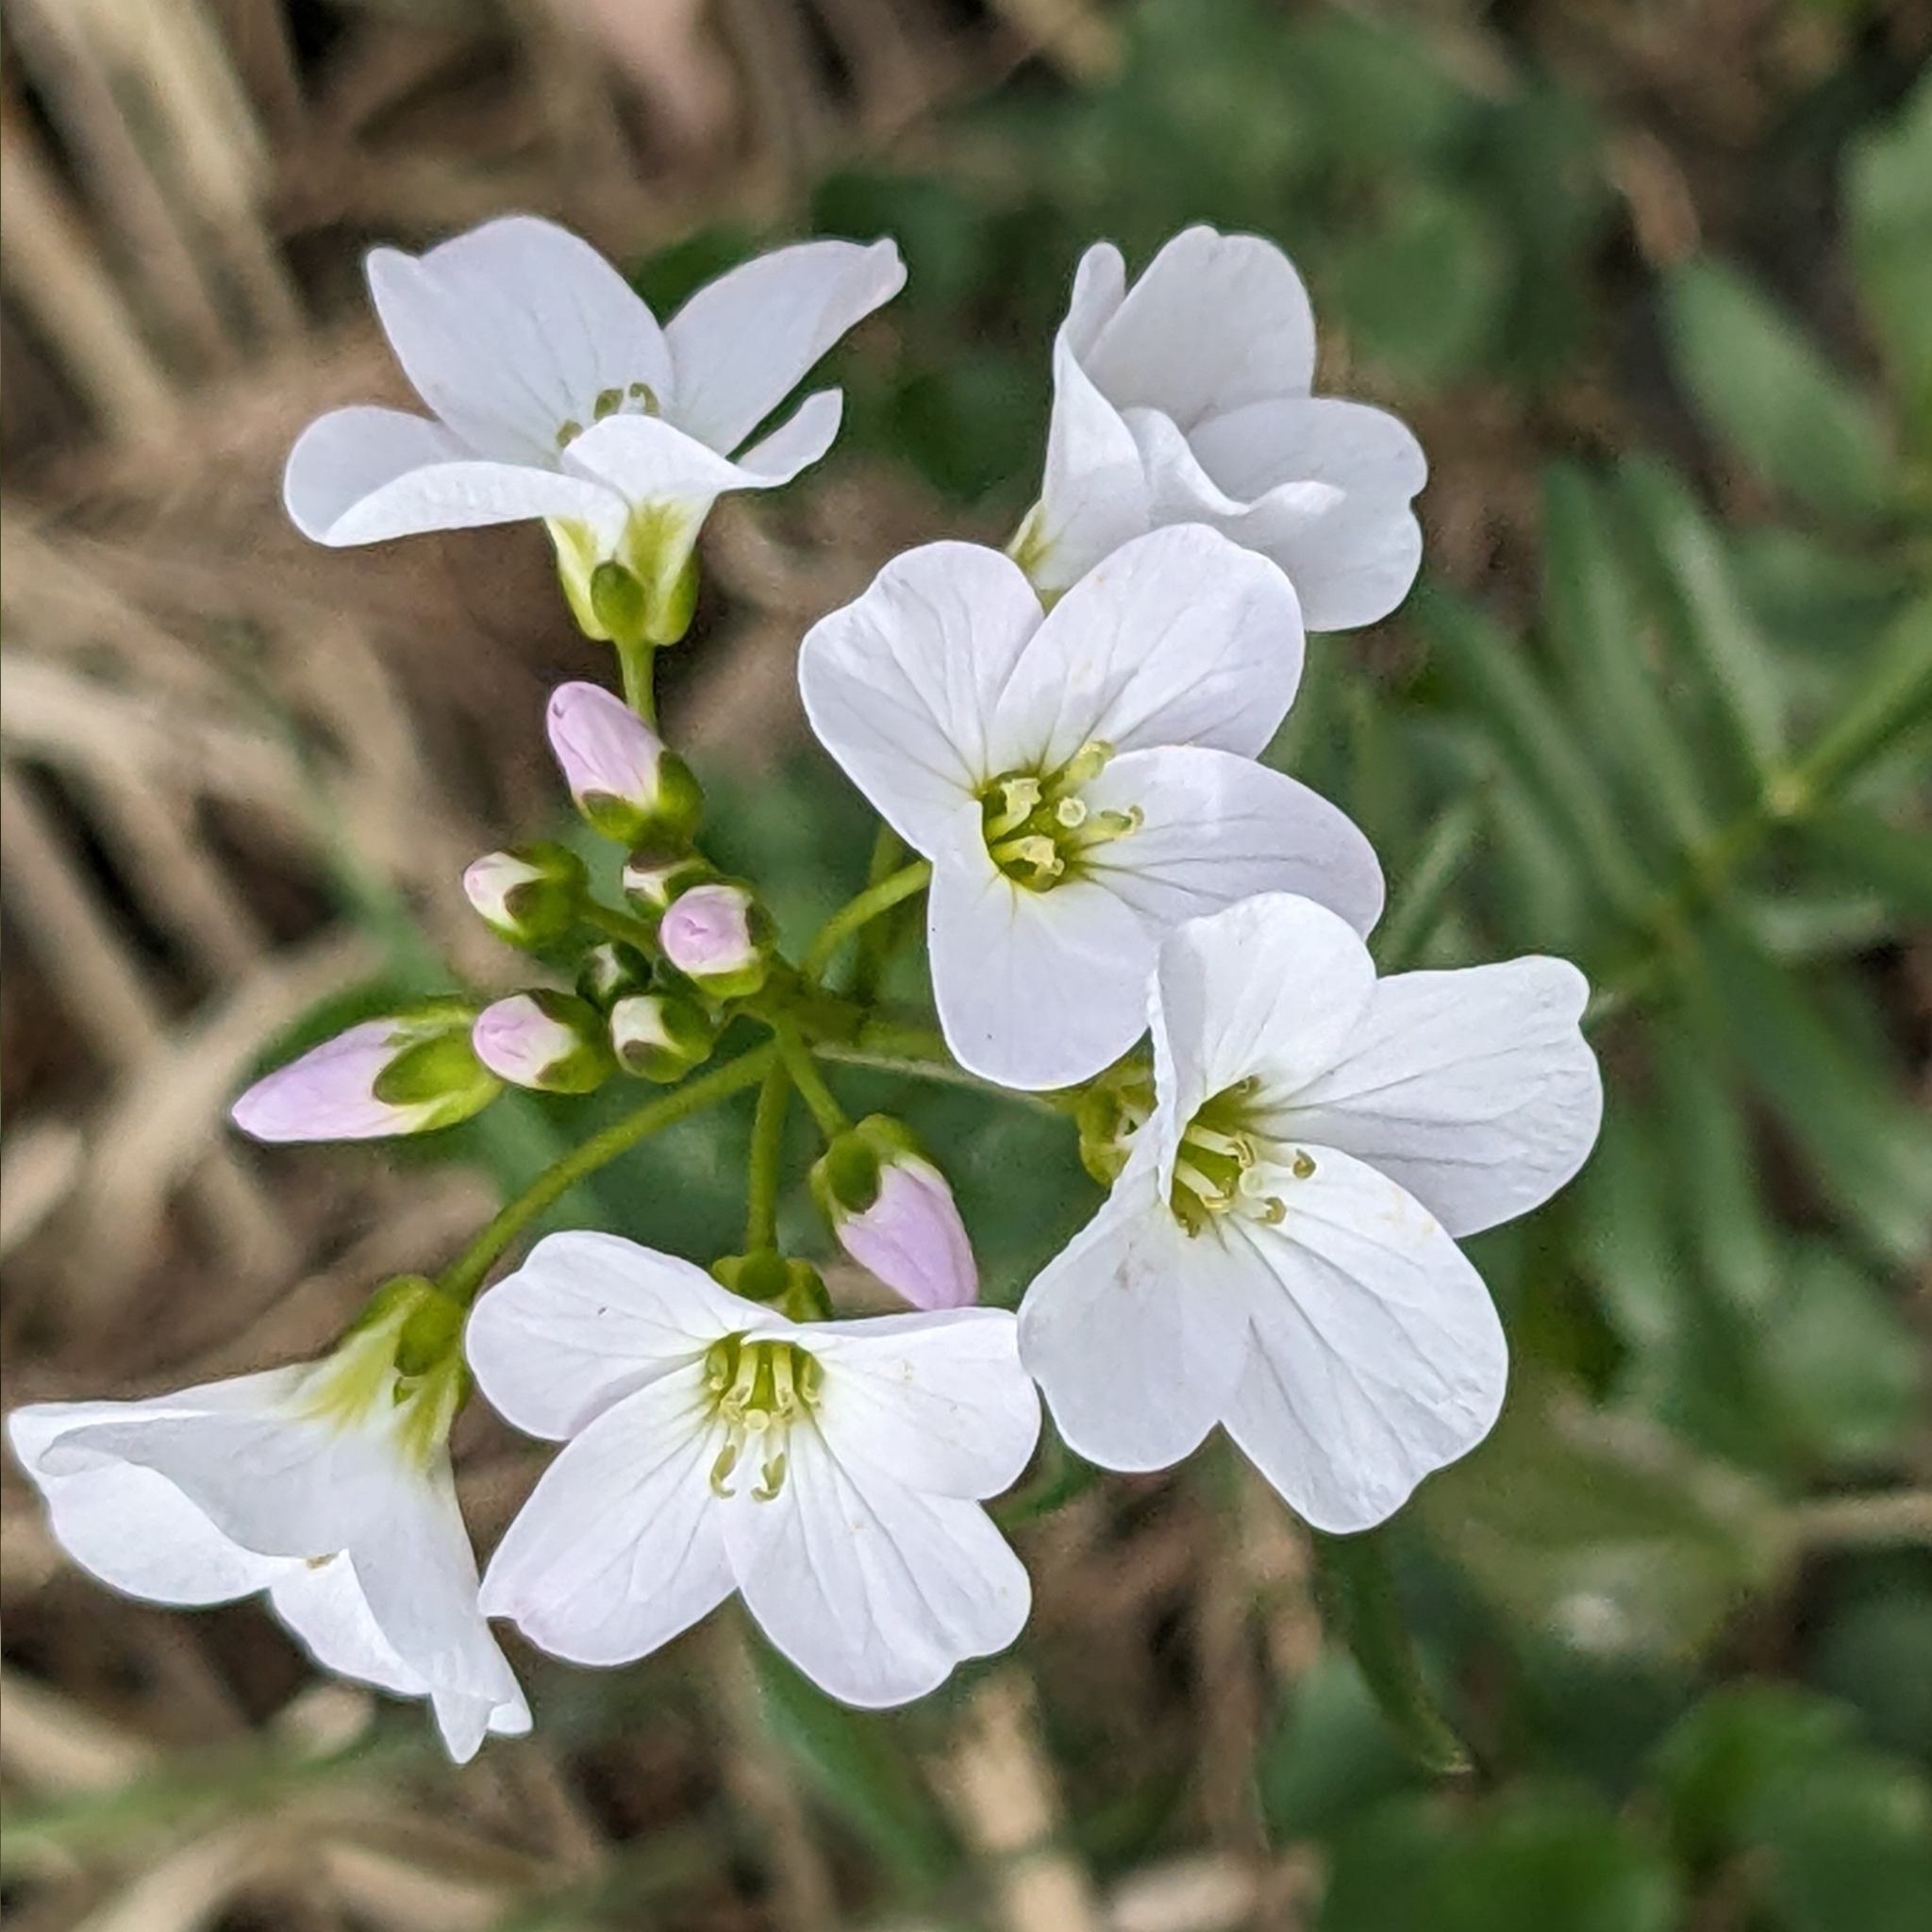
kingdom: Plantae
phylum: Tracheophyta
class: Magnoliopsida
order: Brassicales
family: Brassicaceae
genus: Cardamine
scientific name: Cardamine pratensis
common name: Cuckoo flower
